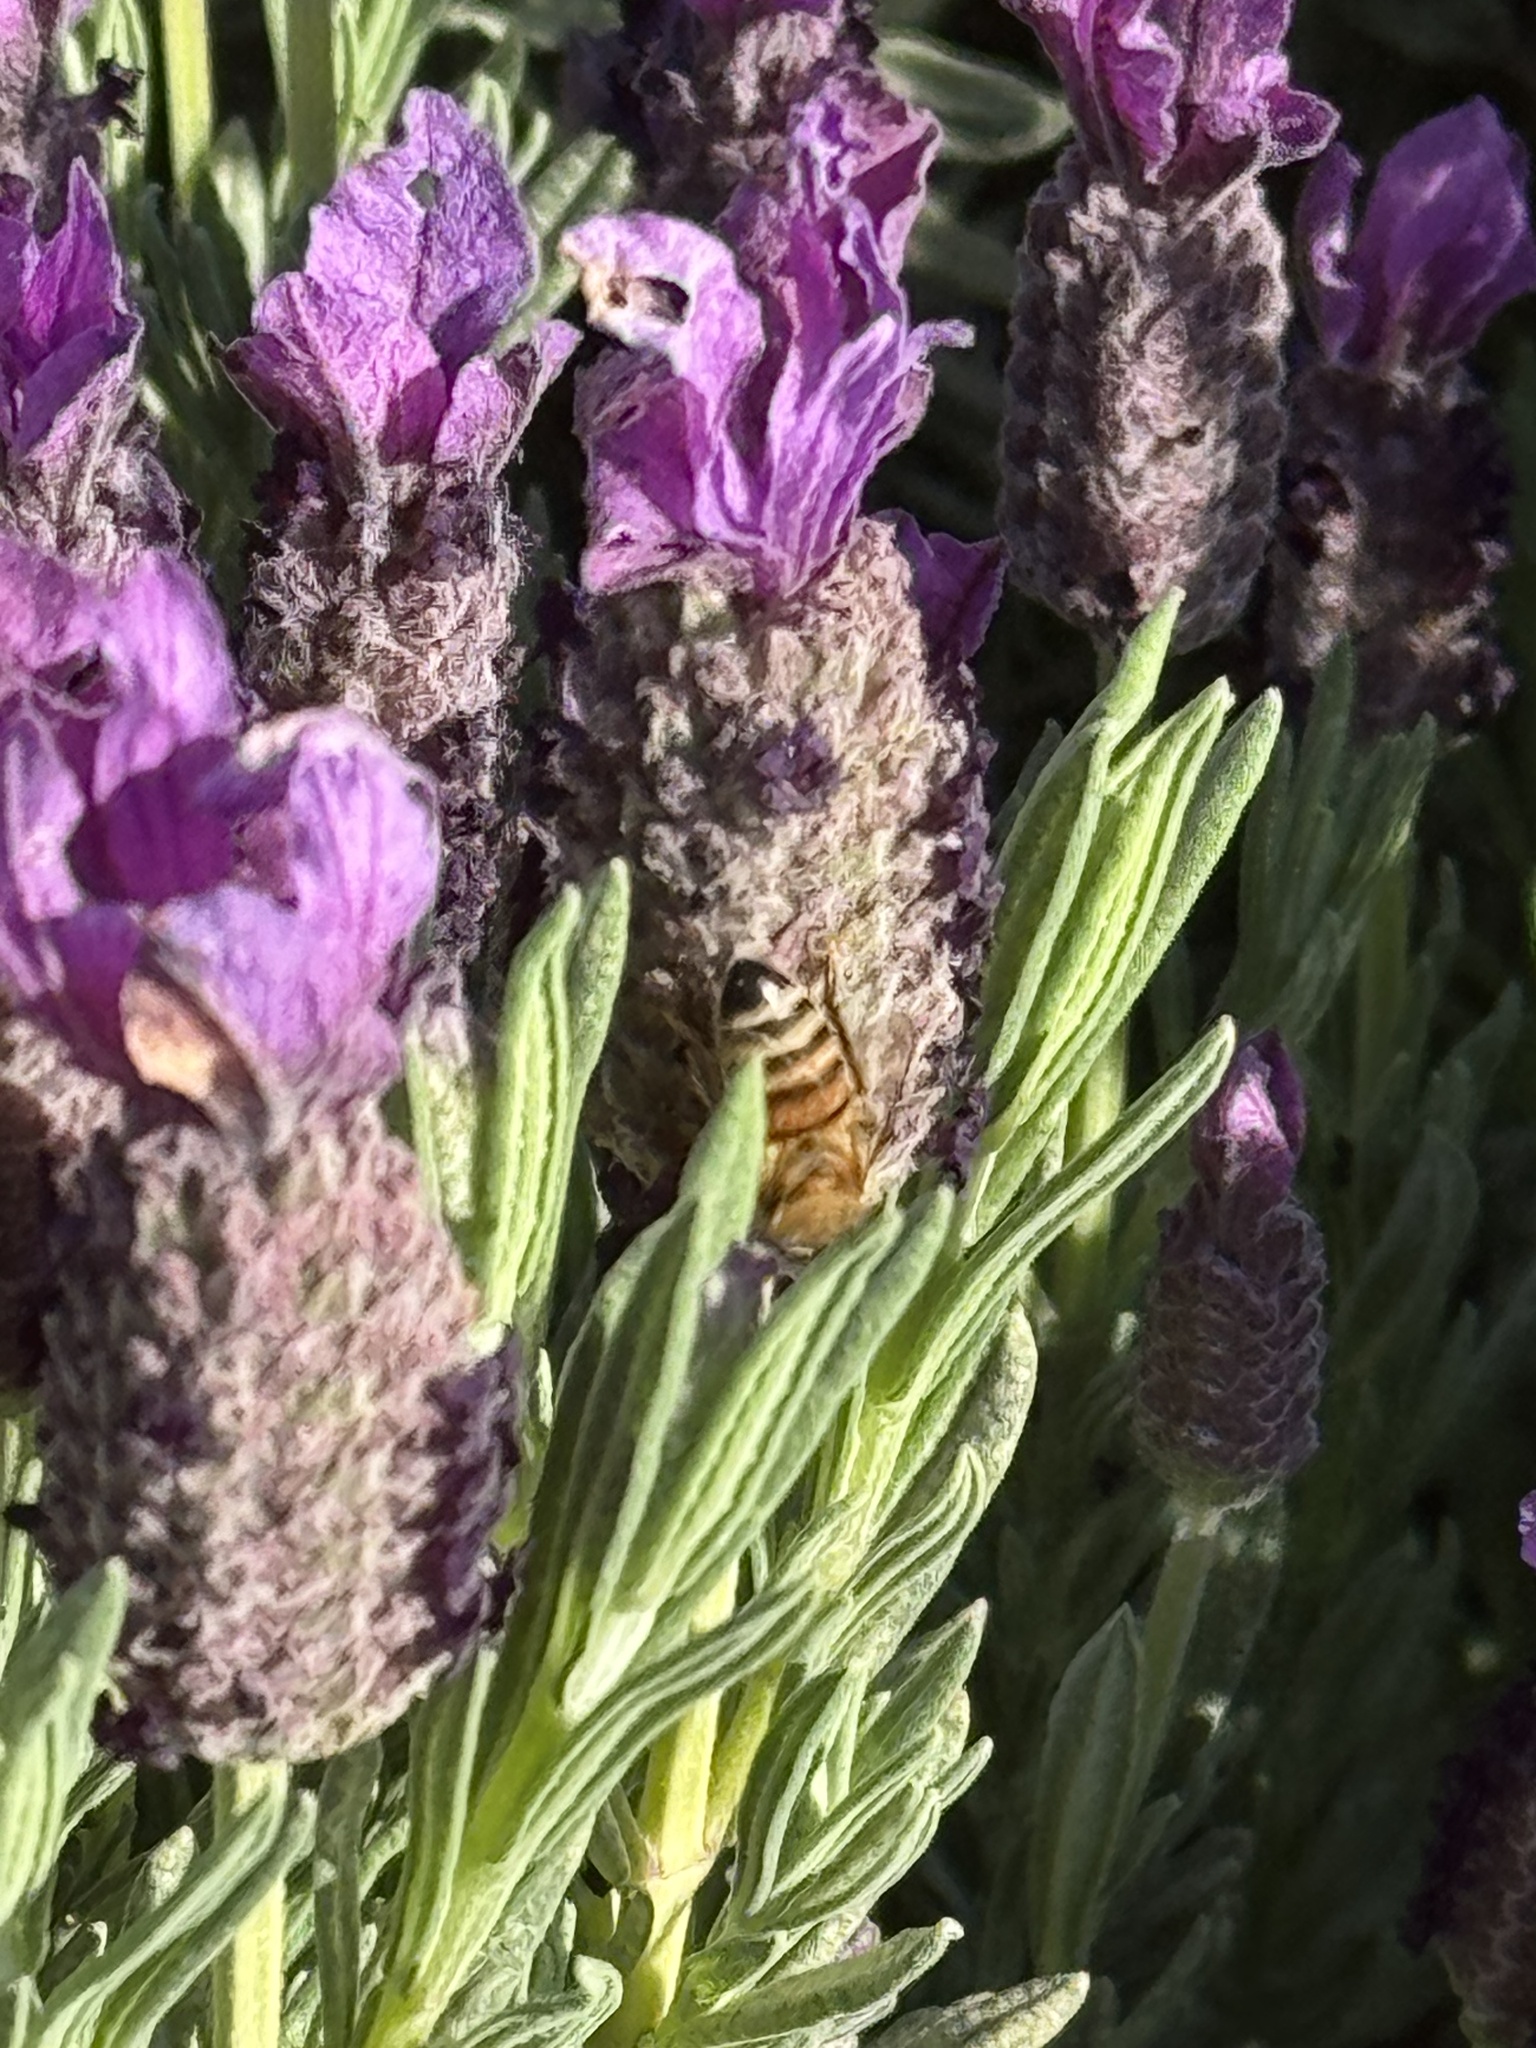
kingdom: Animalia
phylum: Arthropoda
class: Insecta
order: Hymenoptera
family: Apidae
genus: Apis
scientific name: Apis mellifera
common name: Honey bee
